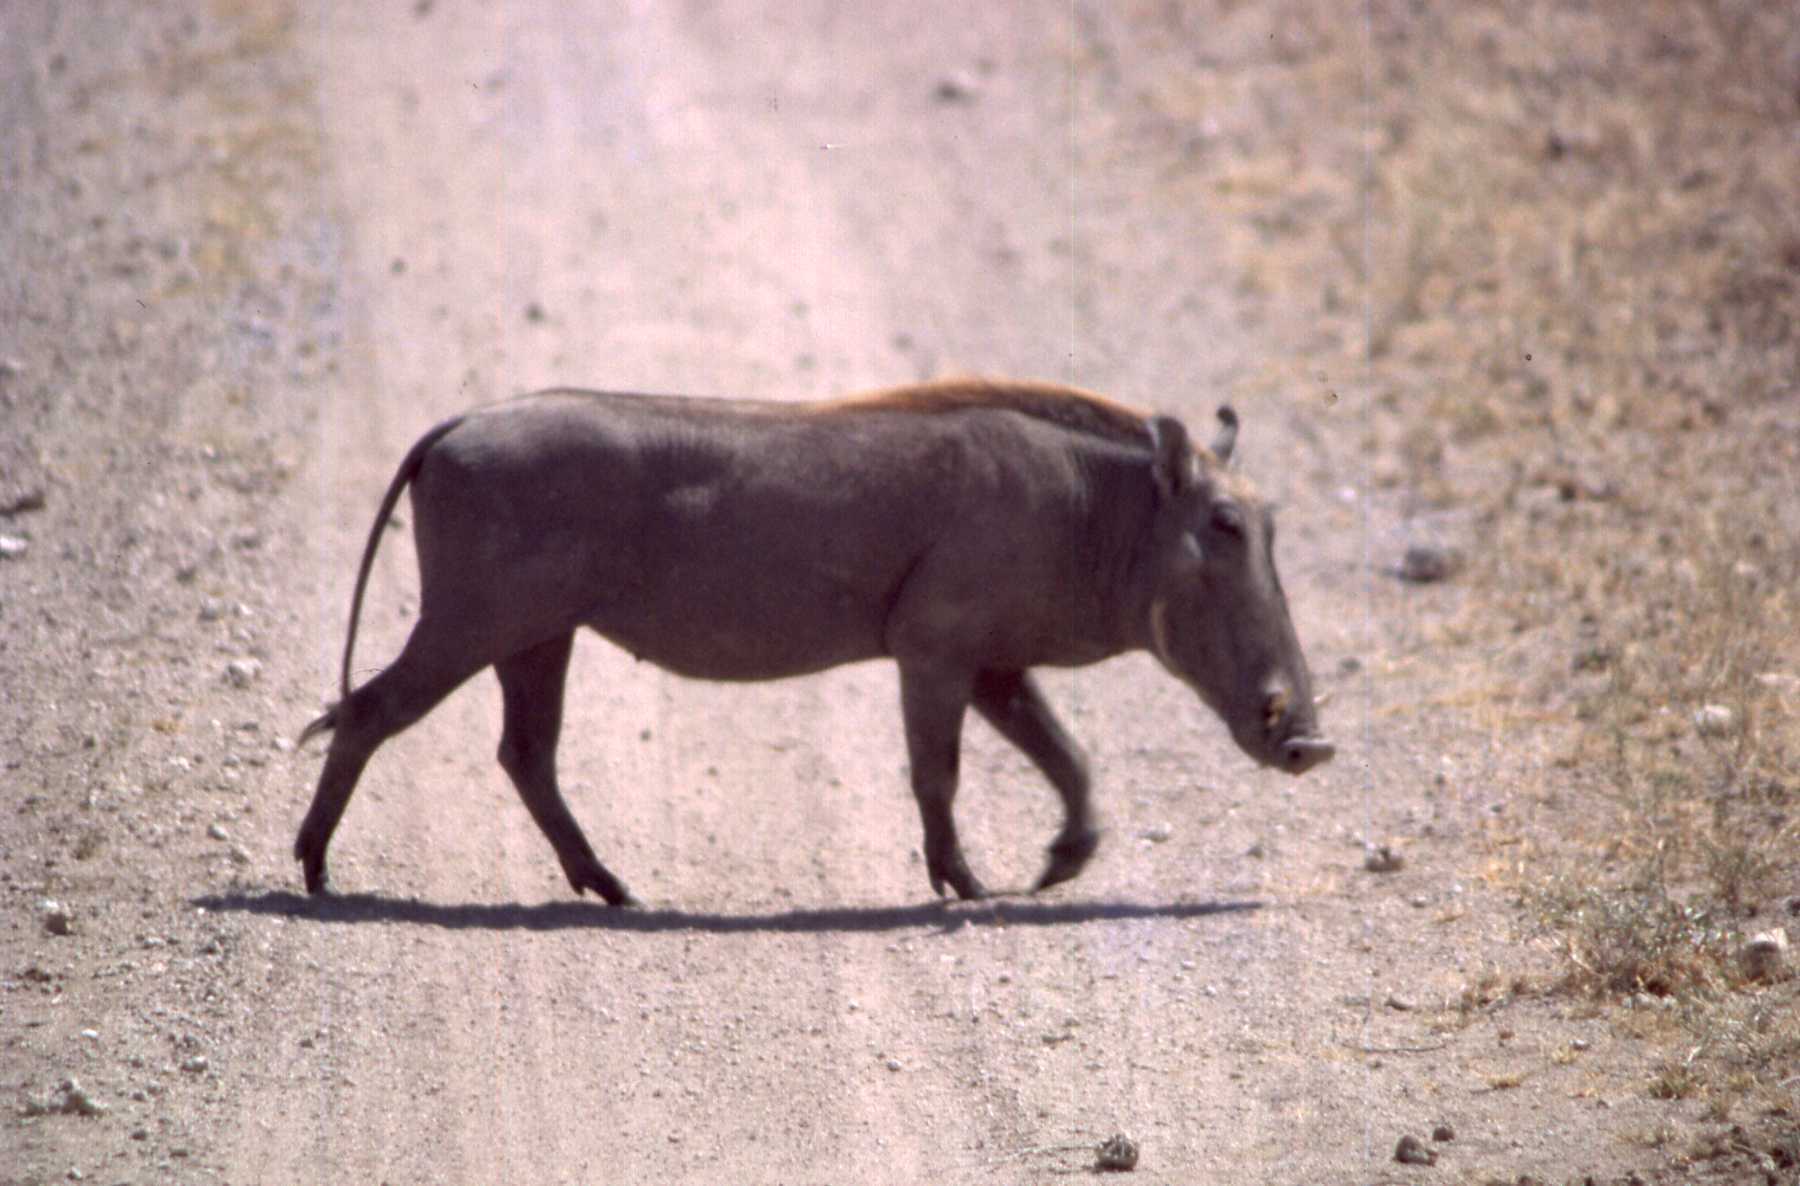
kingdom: Animalia
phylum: Chordata
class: Mammalia
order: Artiodactyla
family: Suidae
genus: Phacochoerus
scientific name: Phacochoerus aethiopicus
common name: Desert warthog
